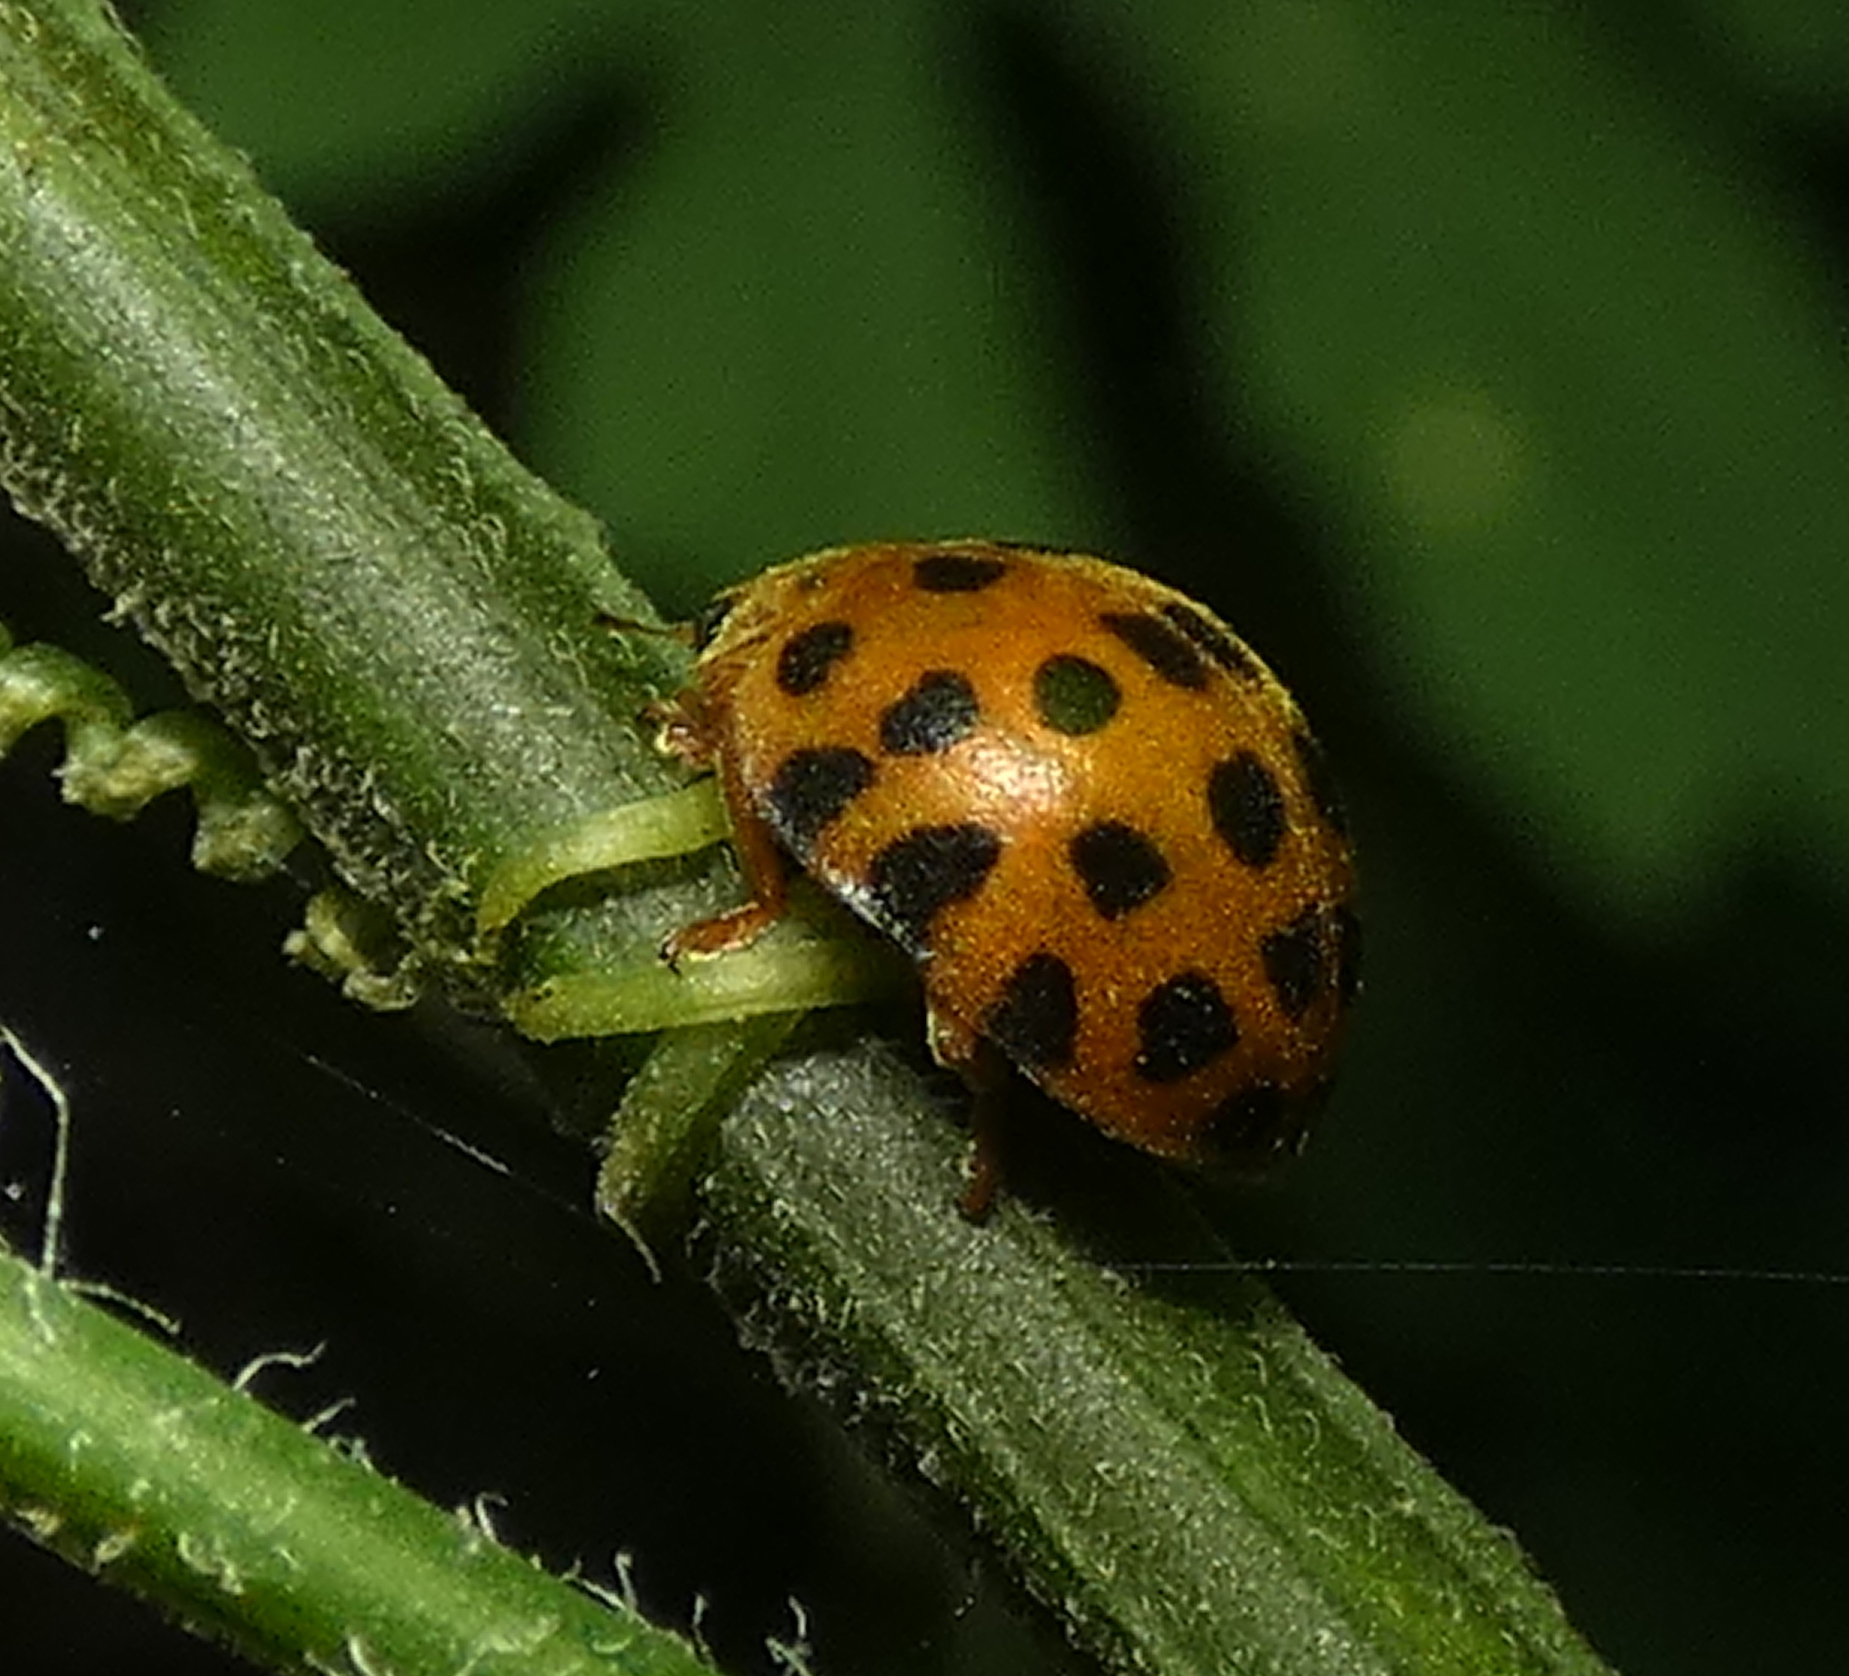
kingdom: Animalia
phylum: Arthropoda
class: Insecta
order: Coleoptera
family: Coccinellidae
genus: Henosepilachna
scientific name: Henosepilachna vigintioctopunctata
